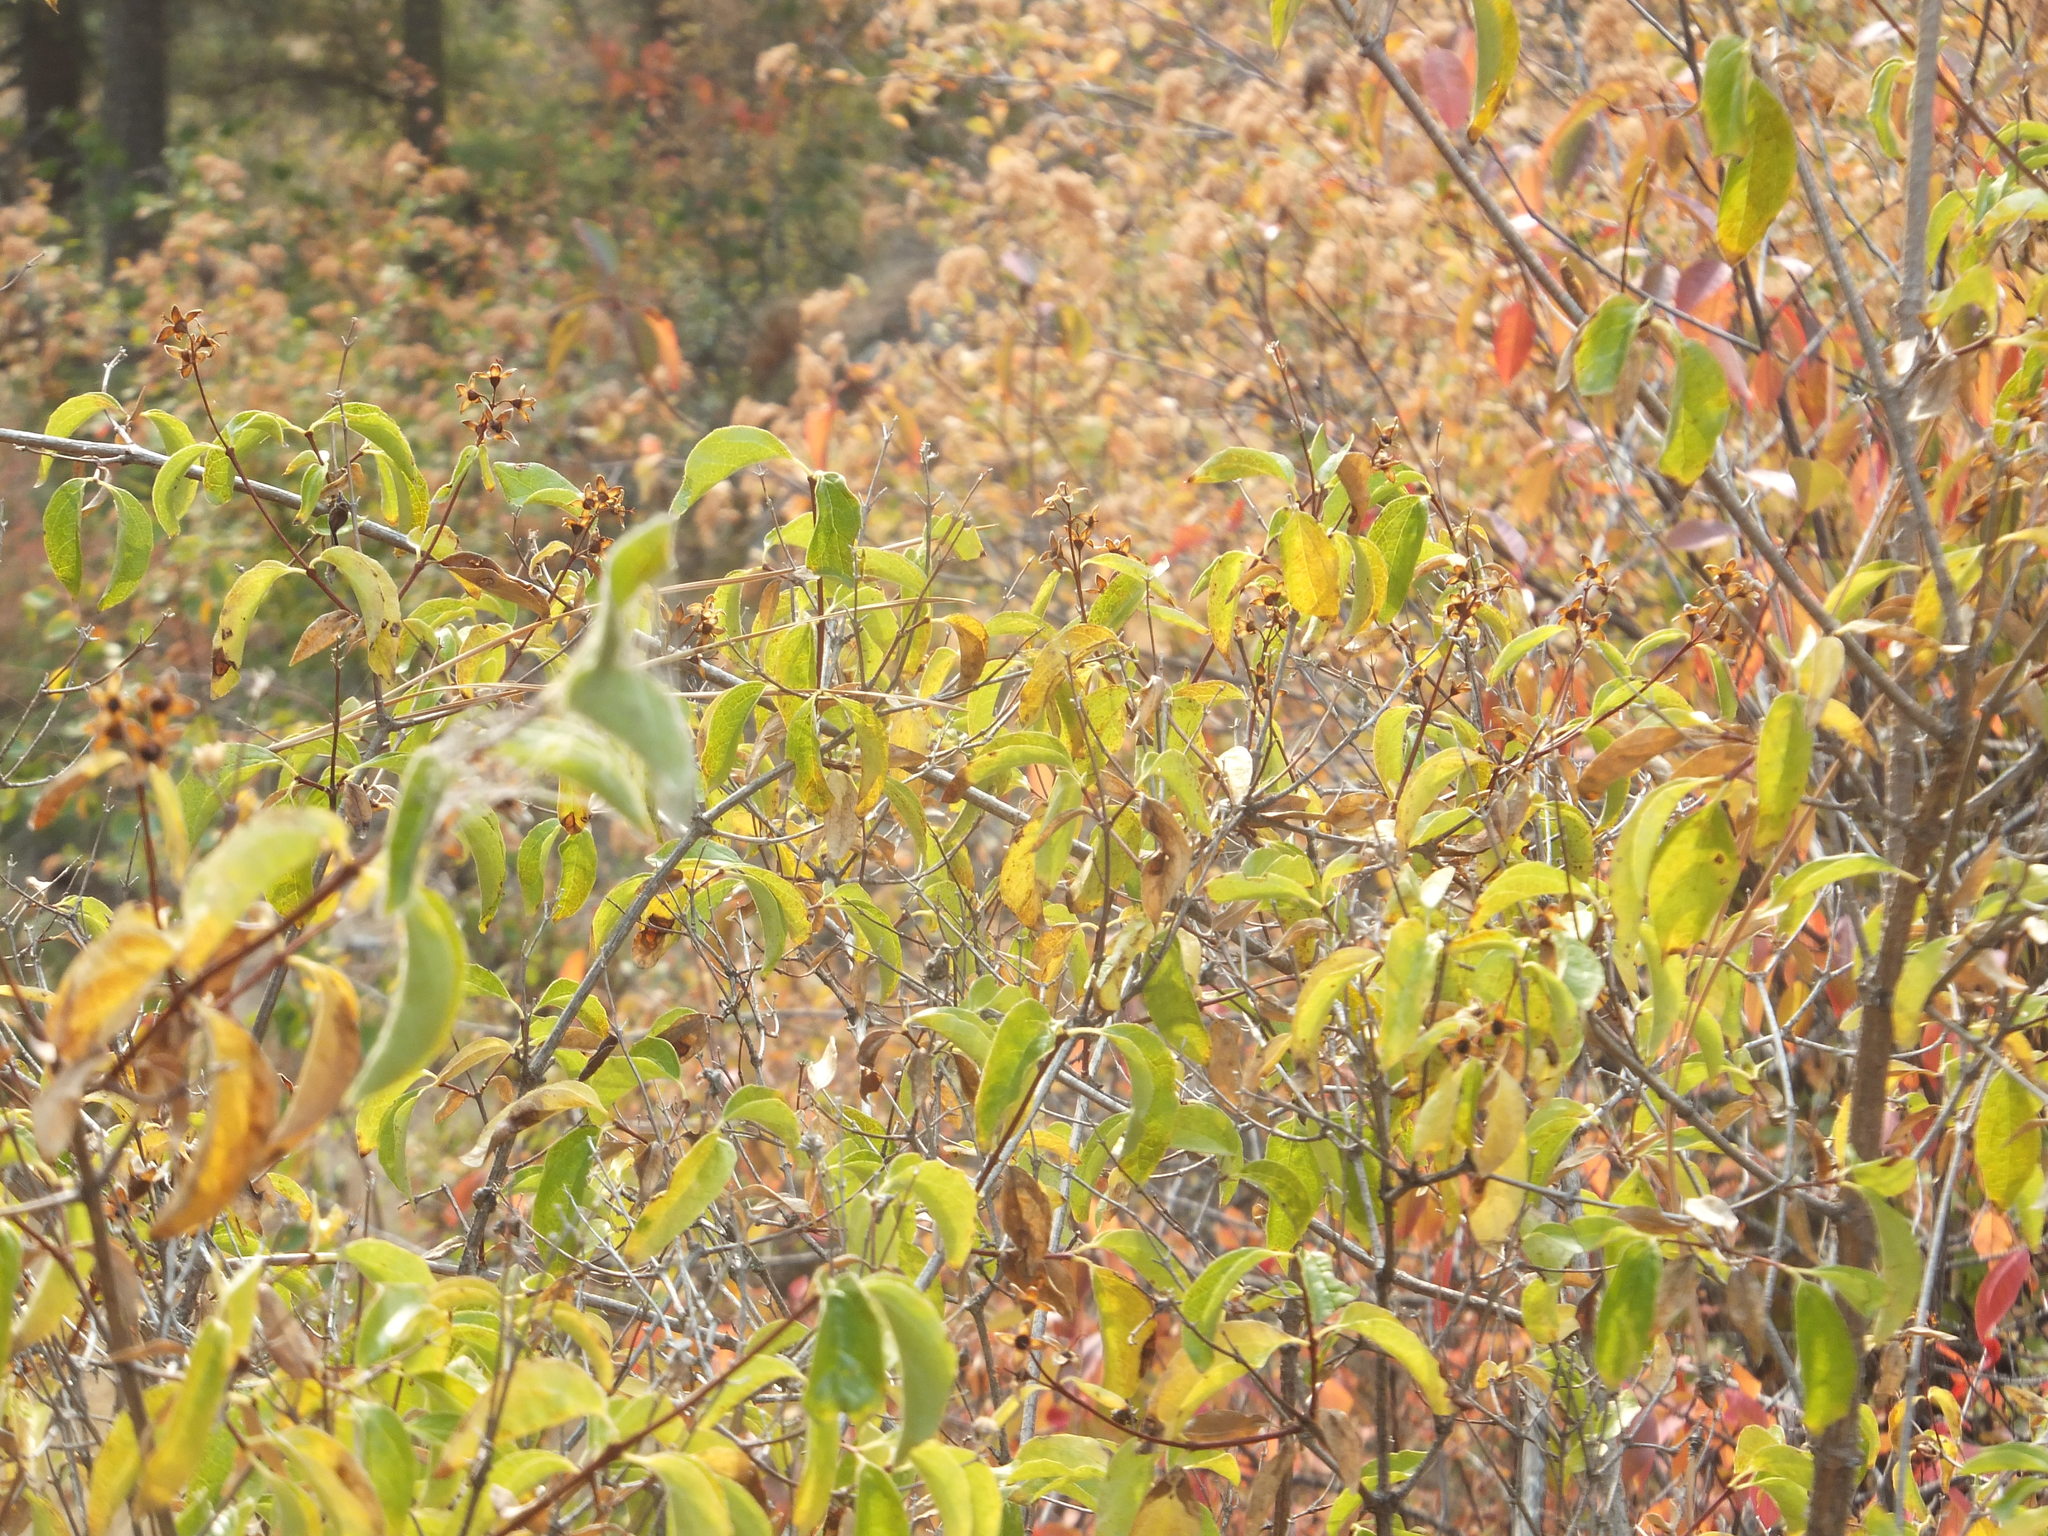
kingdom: Plantae
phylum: Tracheophyta
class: Magnoliopsida
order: Cornales
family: Hydrangeaceae
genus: Philadelphus
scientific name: Philadelphus lewisii
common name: Lewis's mock orange
